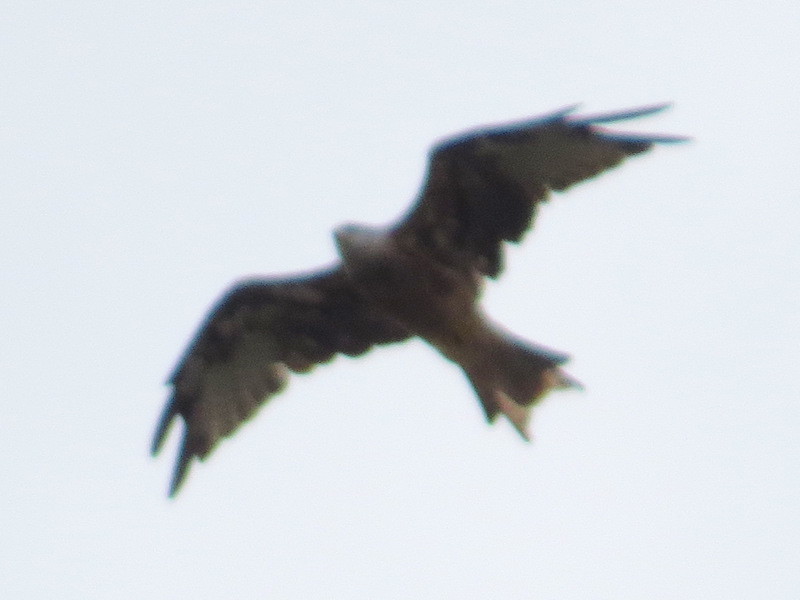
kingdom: Animalia
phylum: Chordata
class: Aves
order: Accipitriformes
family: Accipitridae
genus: Milvus
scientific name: Milvus milvus
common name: Red kite
